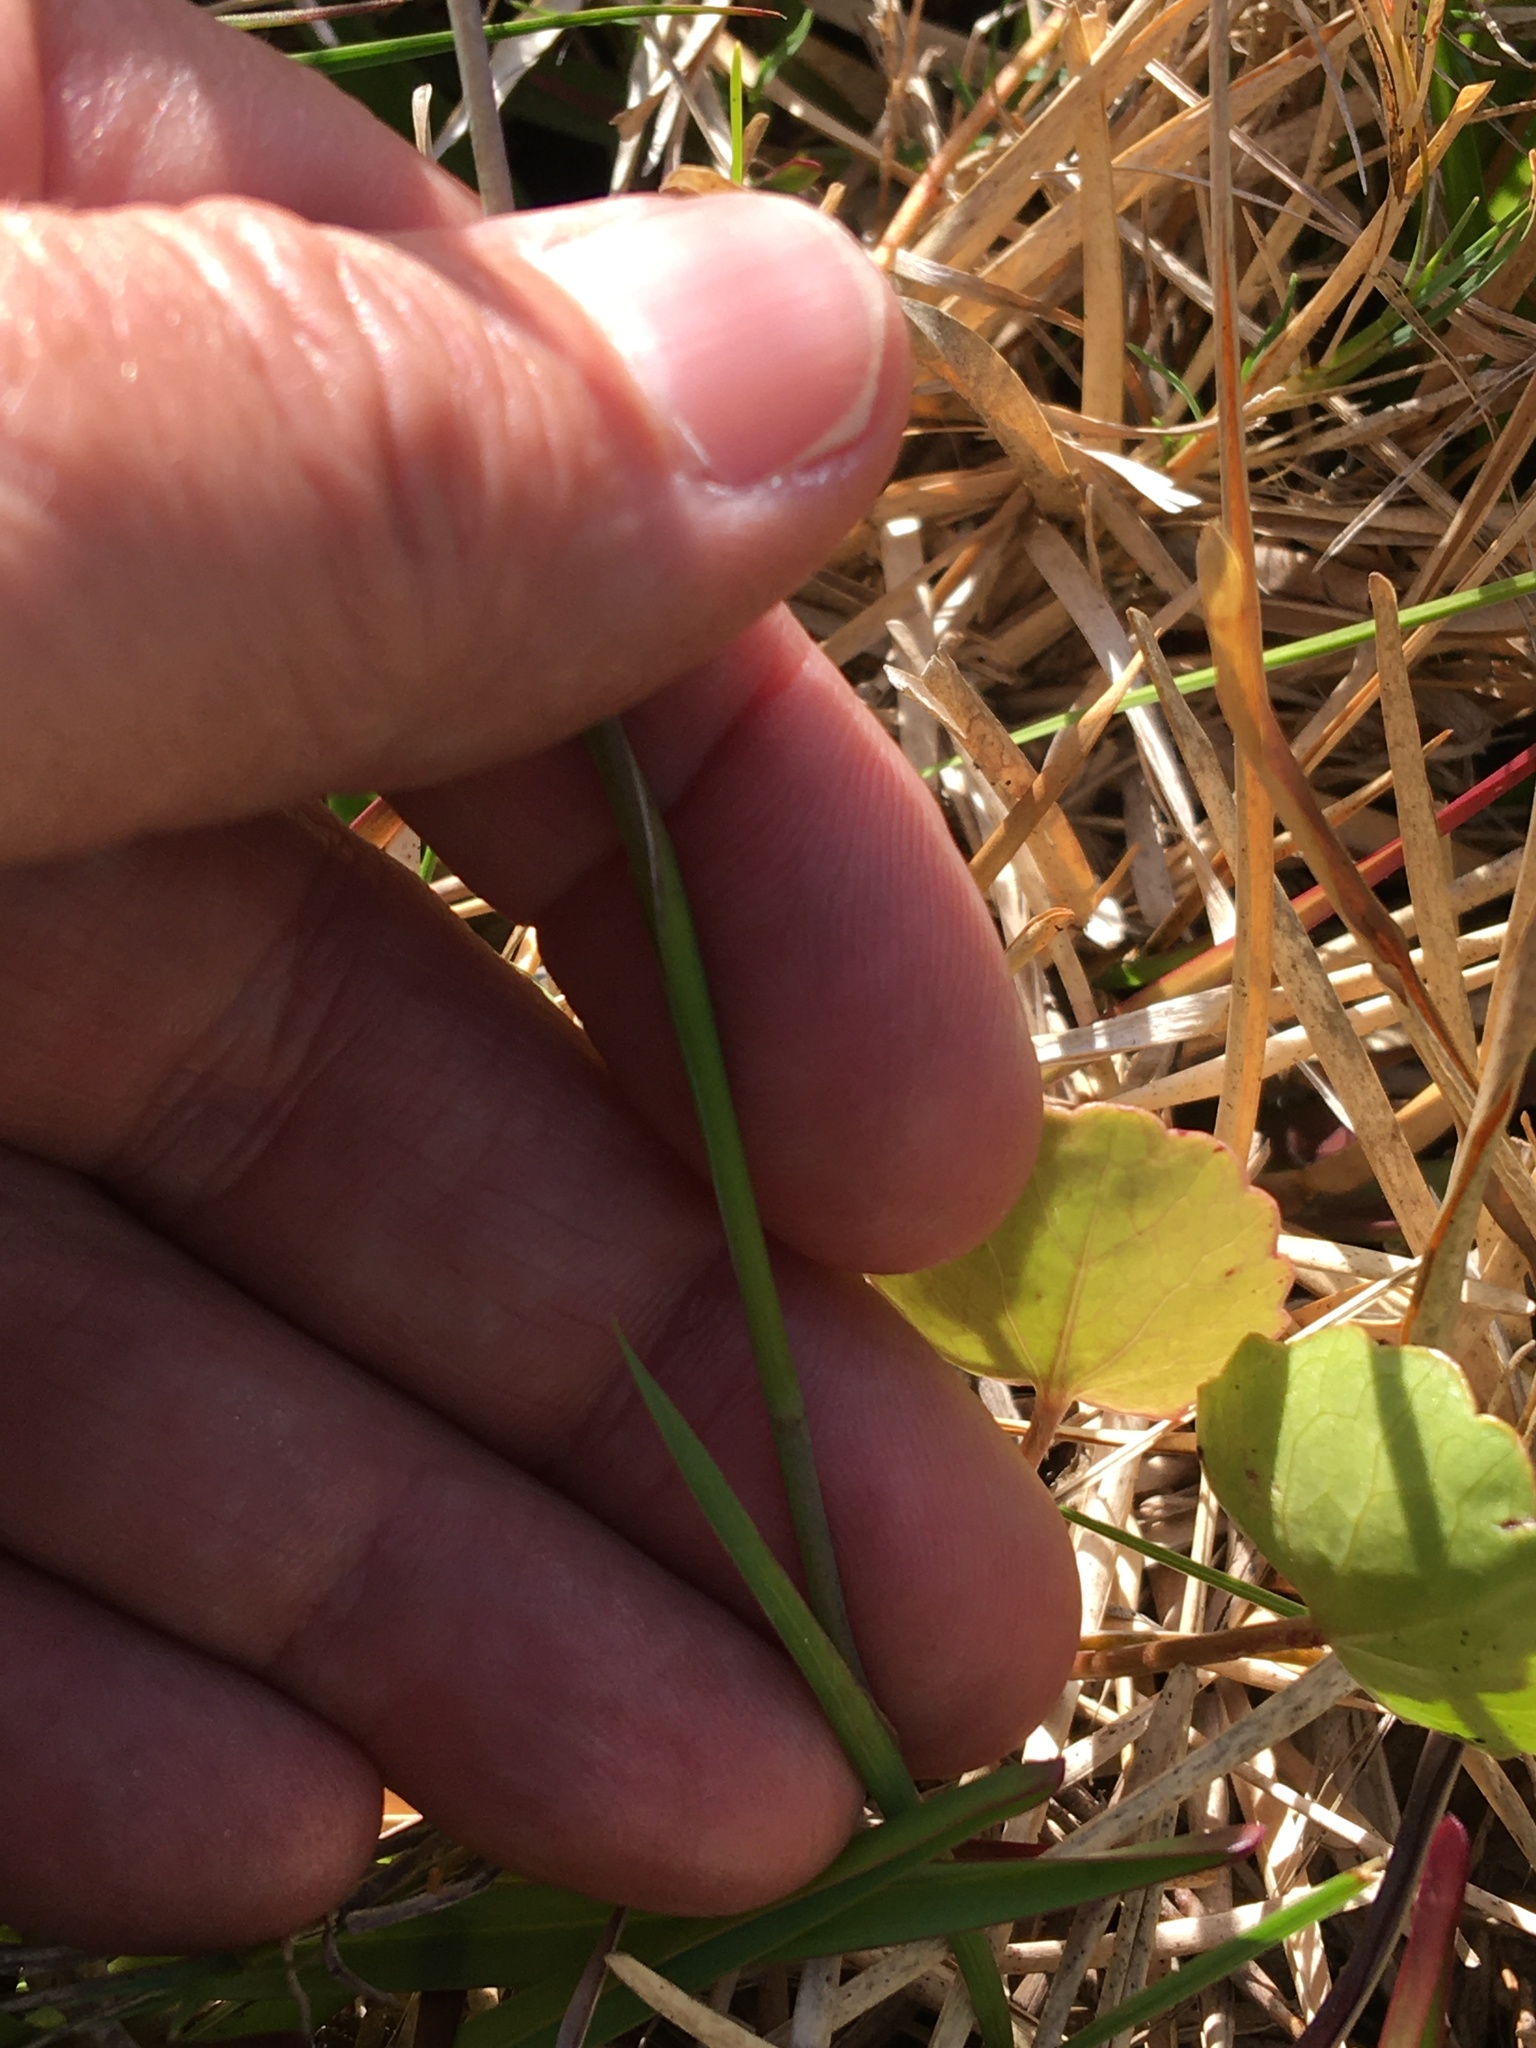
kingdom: Plantae
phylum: Tracheophyta
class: Liliopsida
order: Asparagales
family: Iridaceae
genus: Gladiolus
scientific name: Gladiolus carneus
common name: Painted-lady
